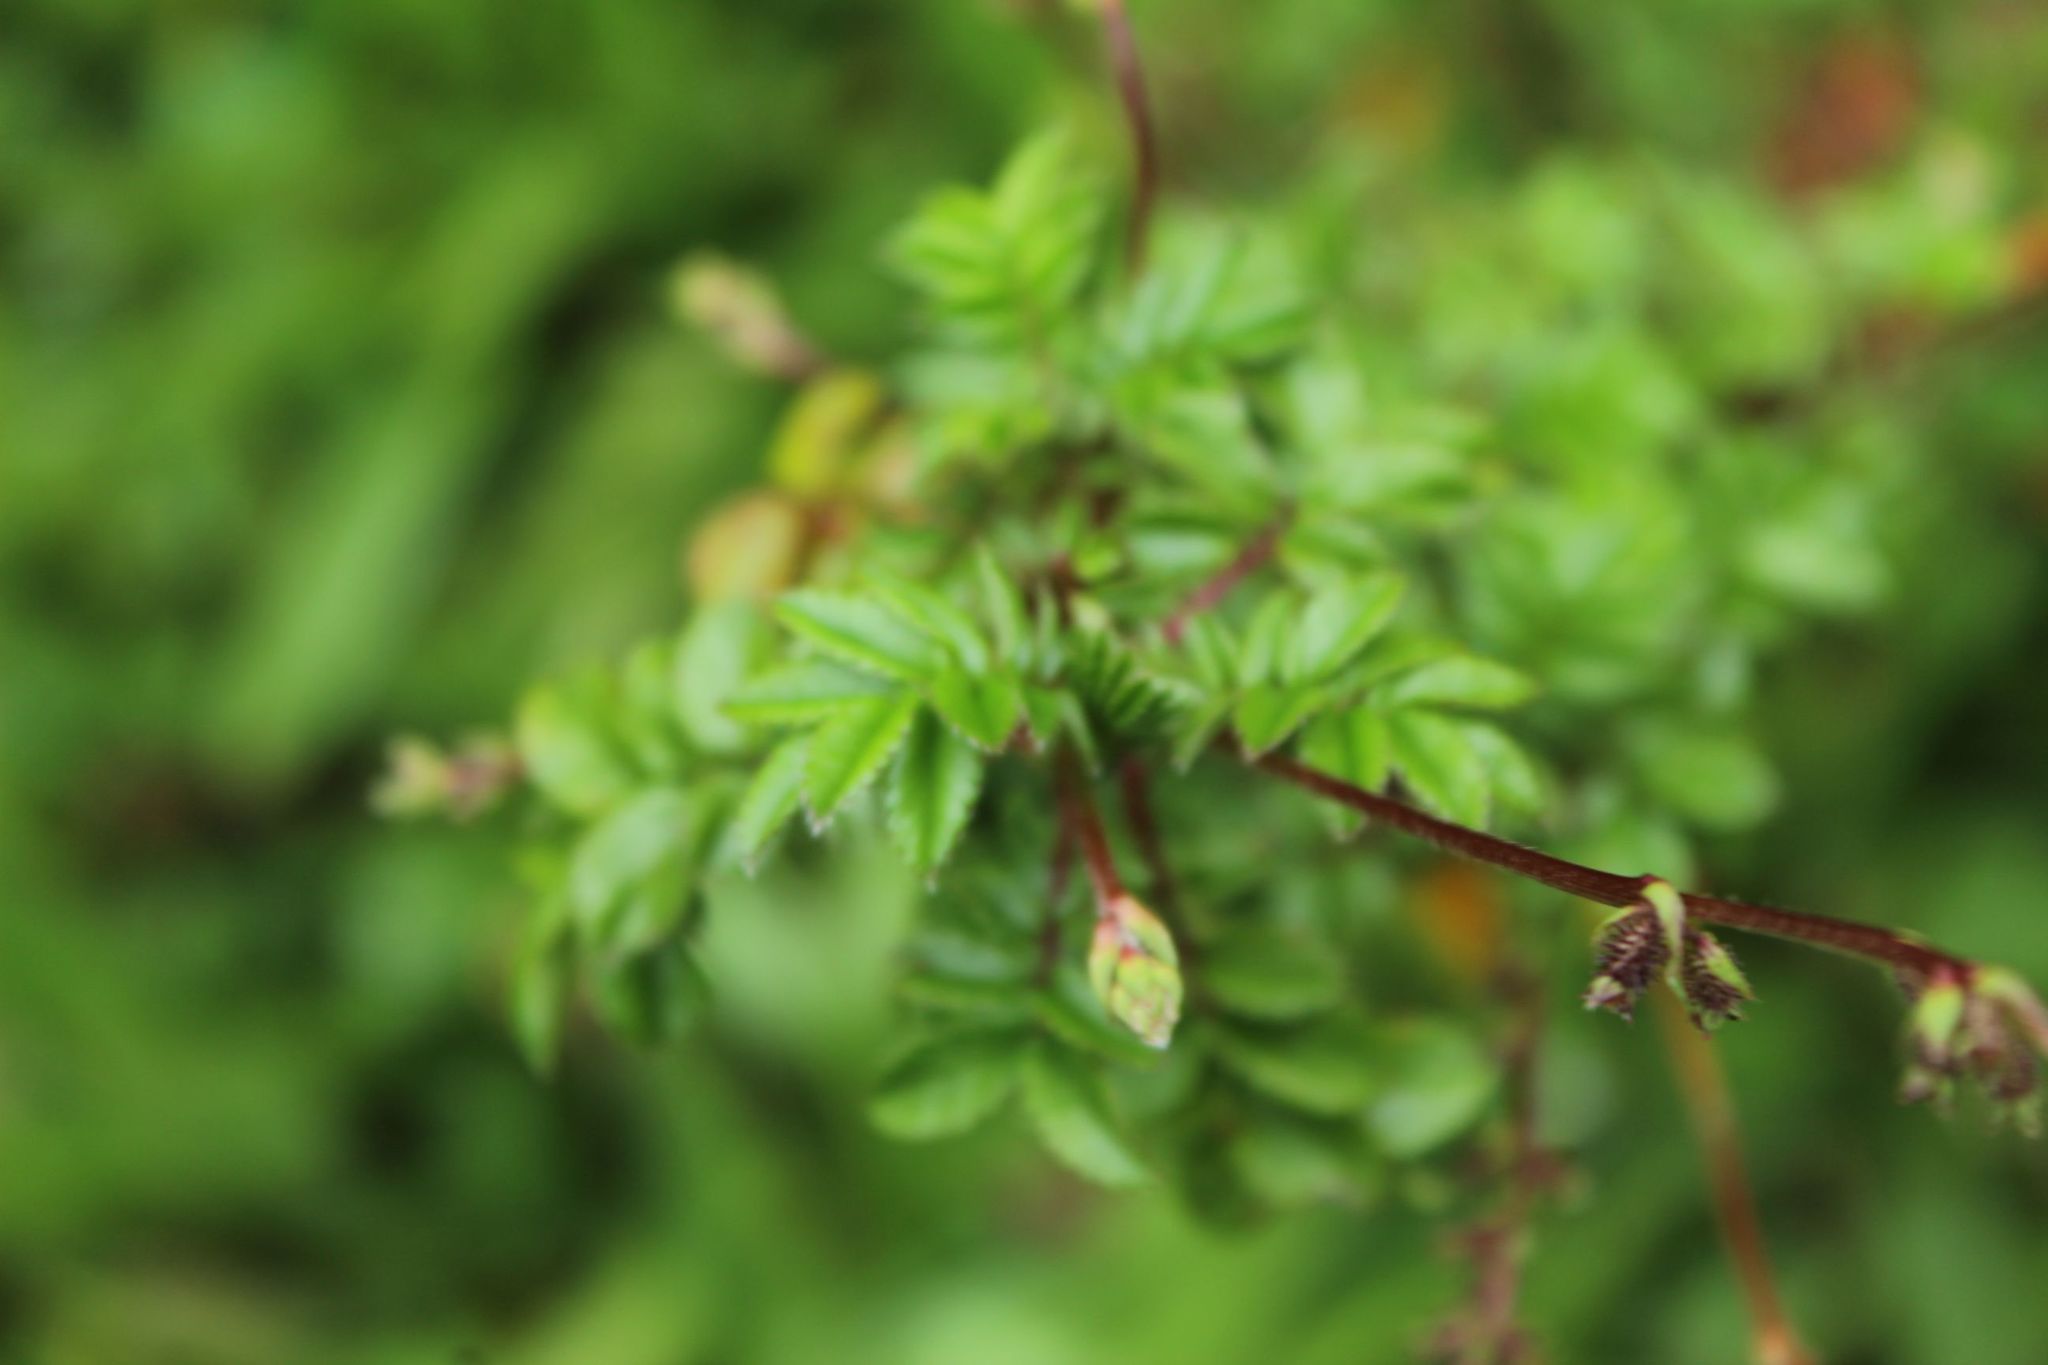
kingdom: Plantae
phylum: Tracheophyta
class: Magnoliopsida
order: Rosales
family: Rosaceae
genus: Acaena
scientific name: Acaena elongata
